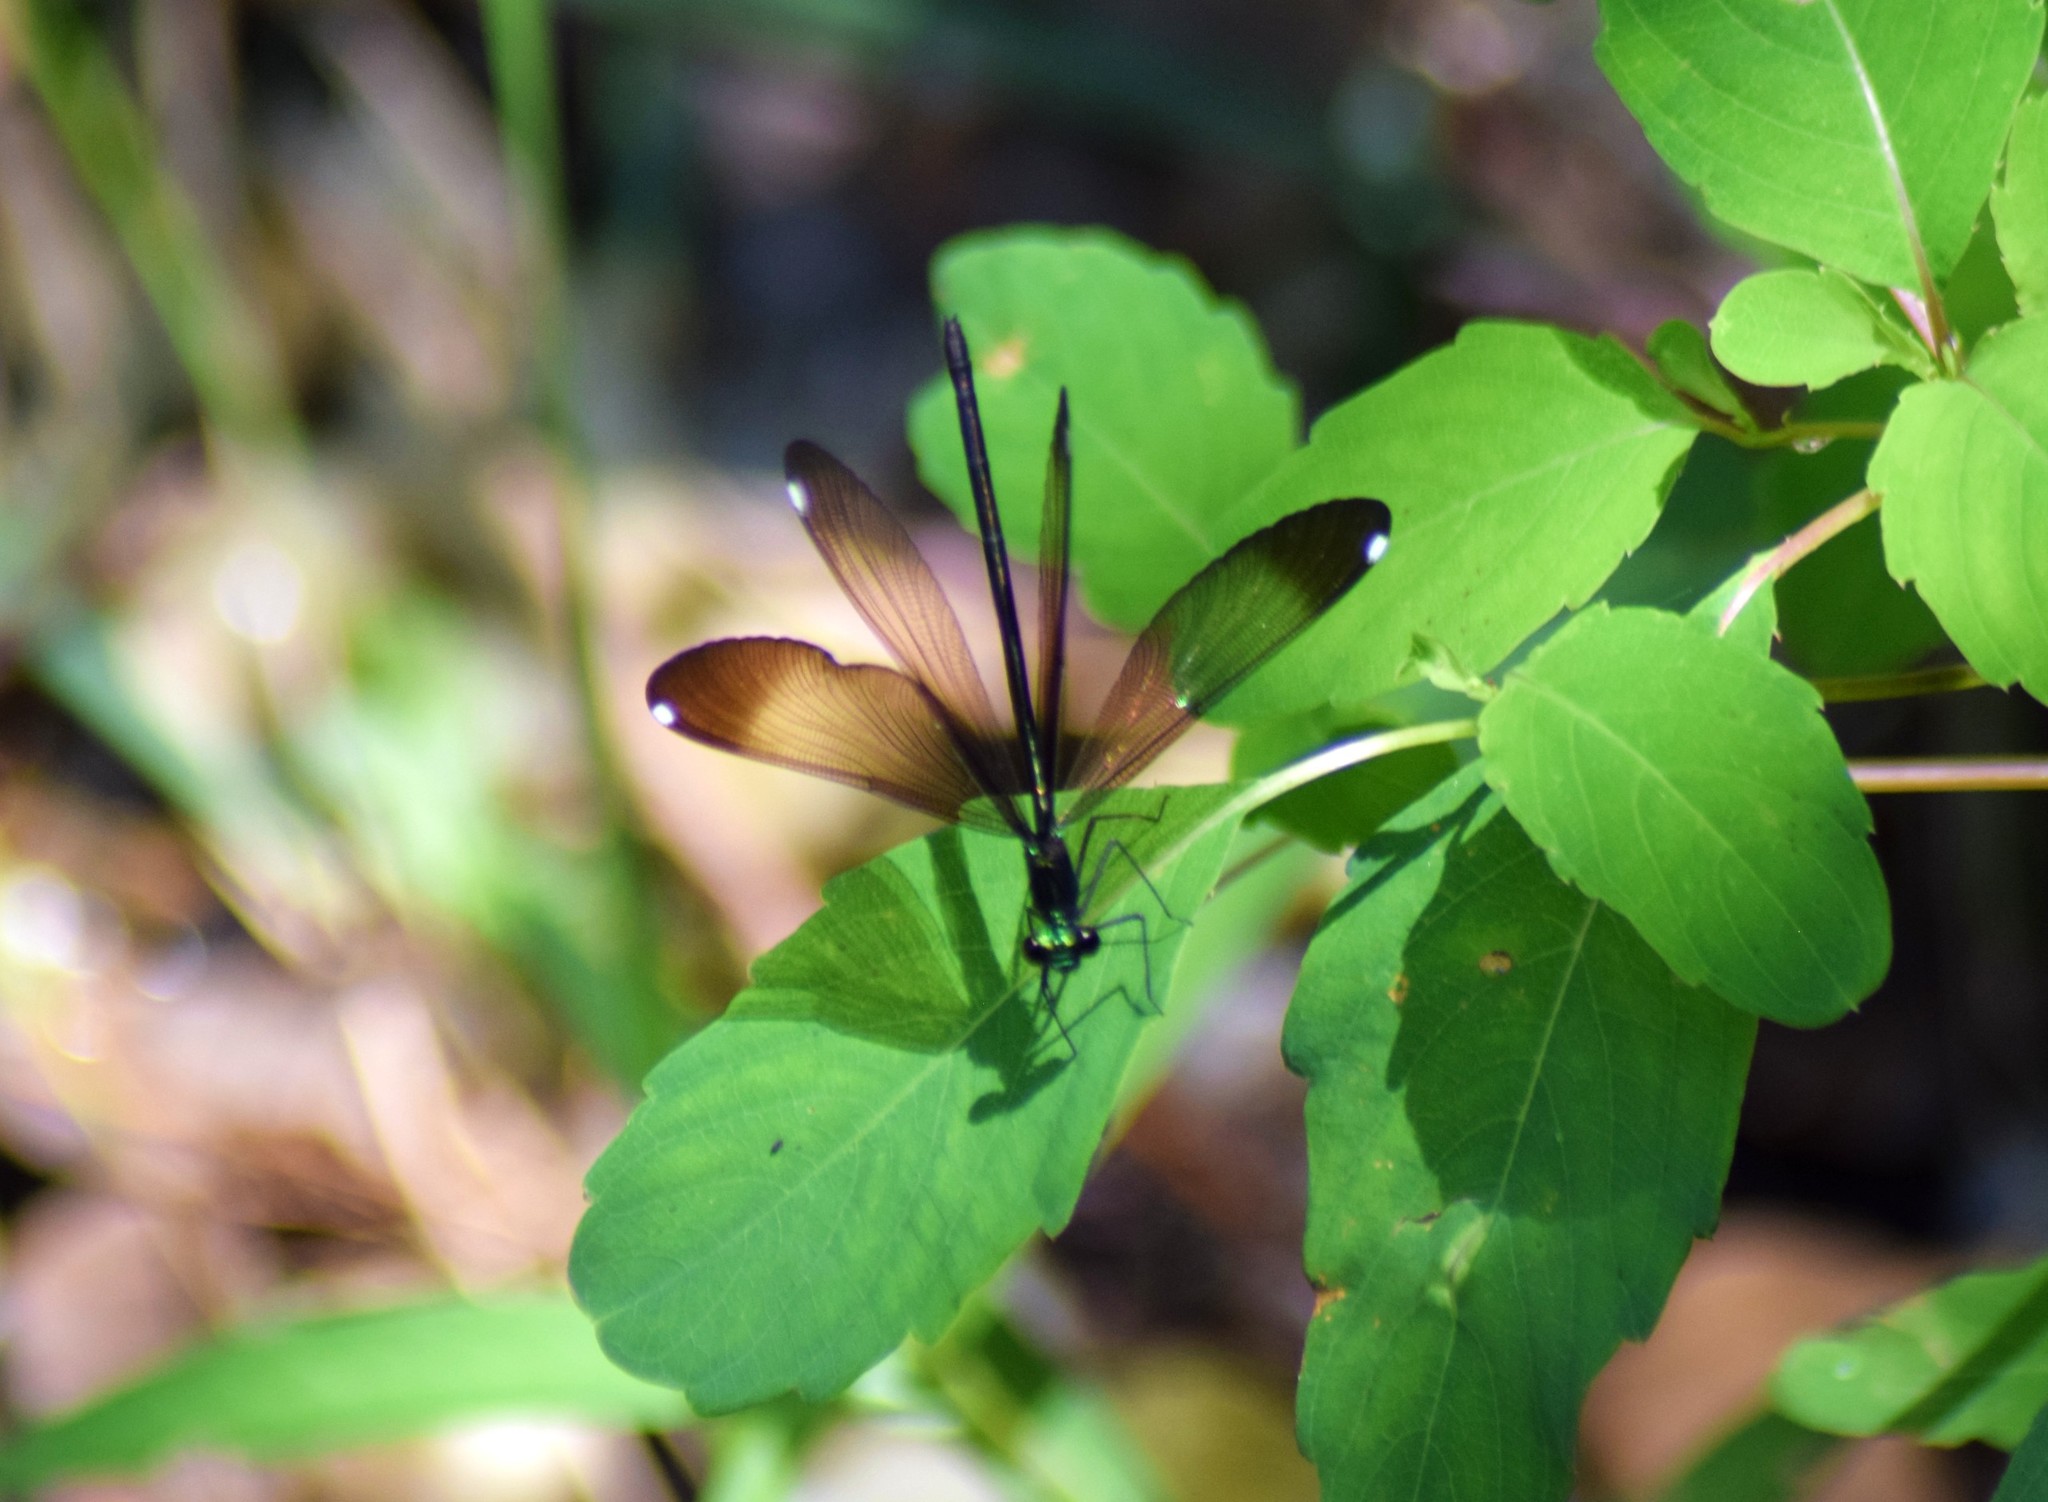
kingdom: Animalia
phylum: Arthropoda
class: Insecta
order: Odonata
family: Calopterygidae
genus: Calopteryx
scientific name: Calopteryx maculata
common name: Ebony jewelwing
